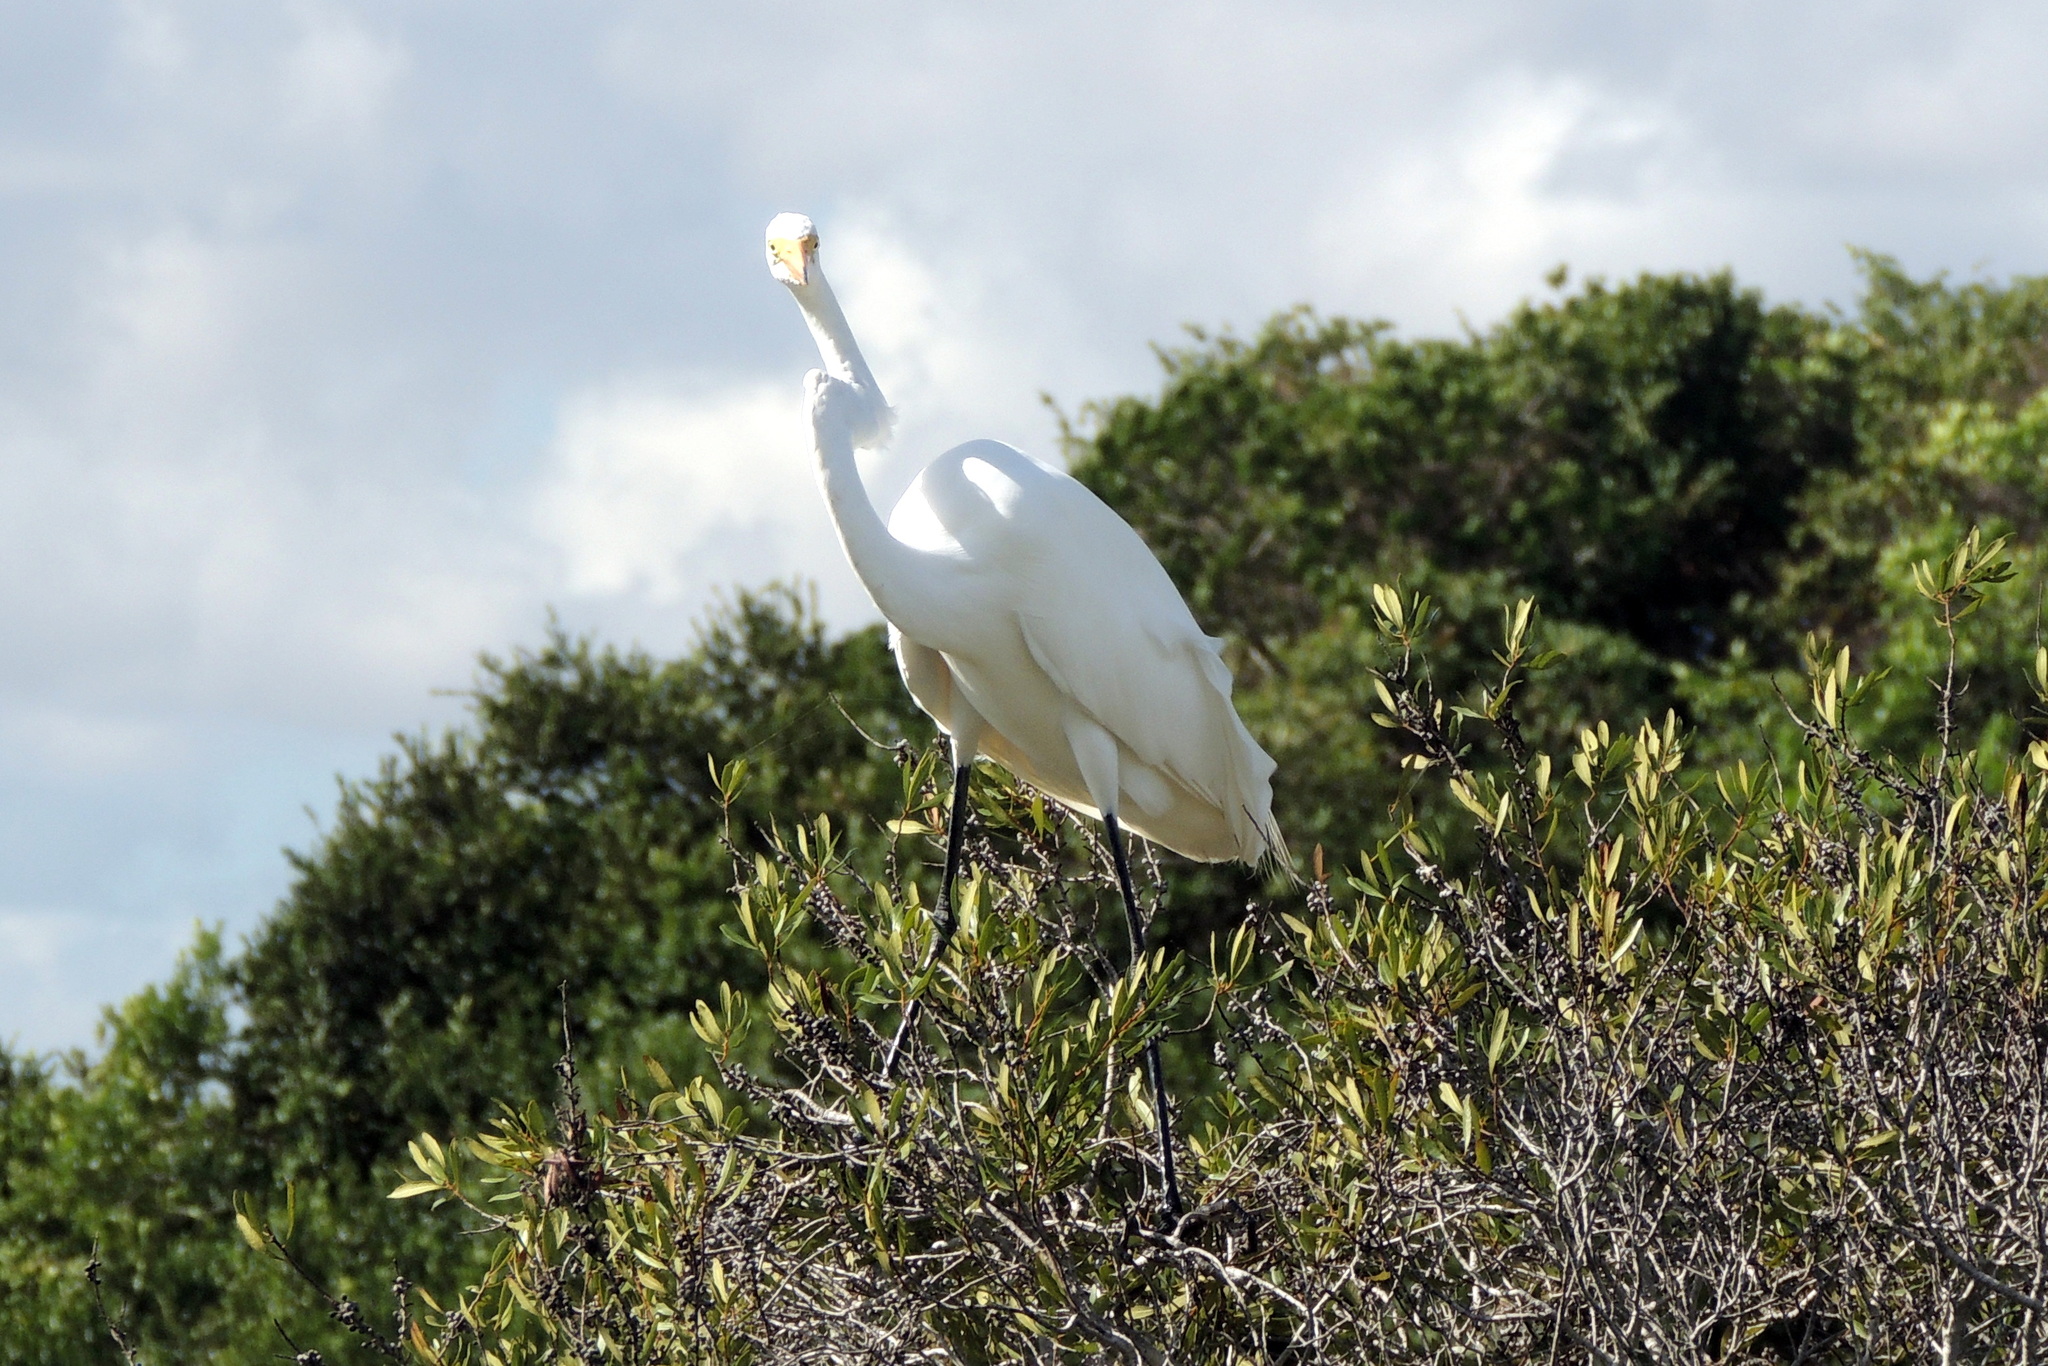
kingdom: Animalia
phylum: Chordata
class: Aves
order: Pelecaniformes
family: Ardeidae
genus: Ardea
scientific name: Ardea alba
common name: Great egret
